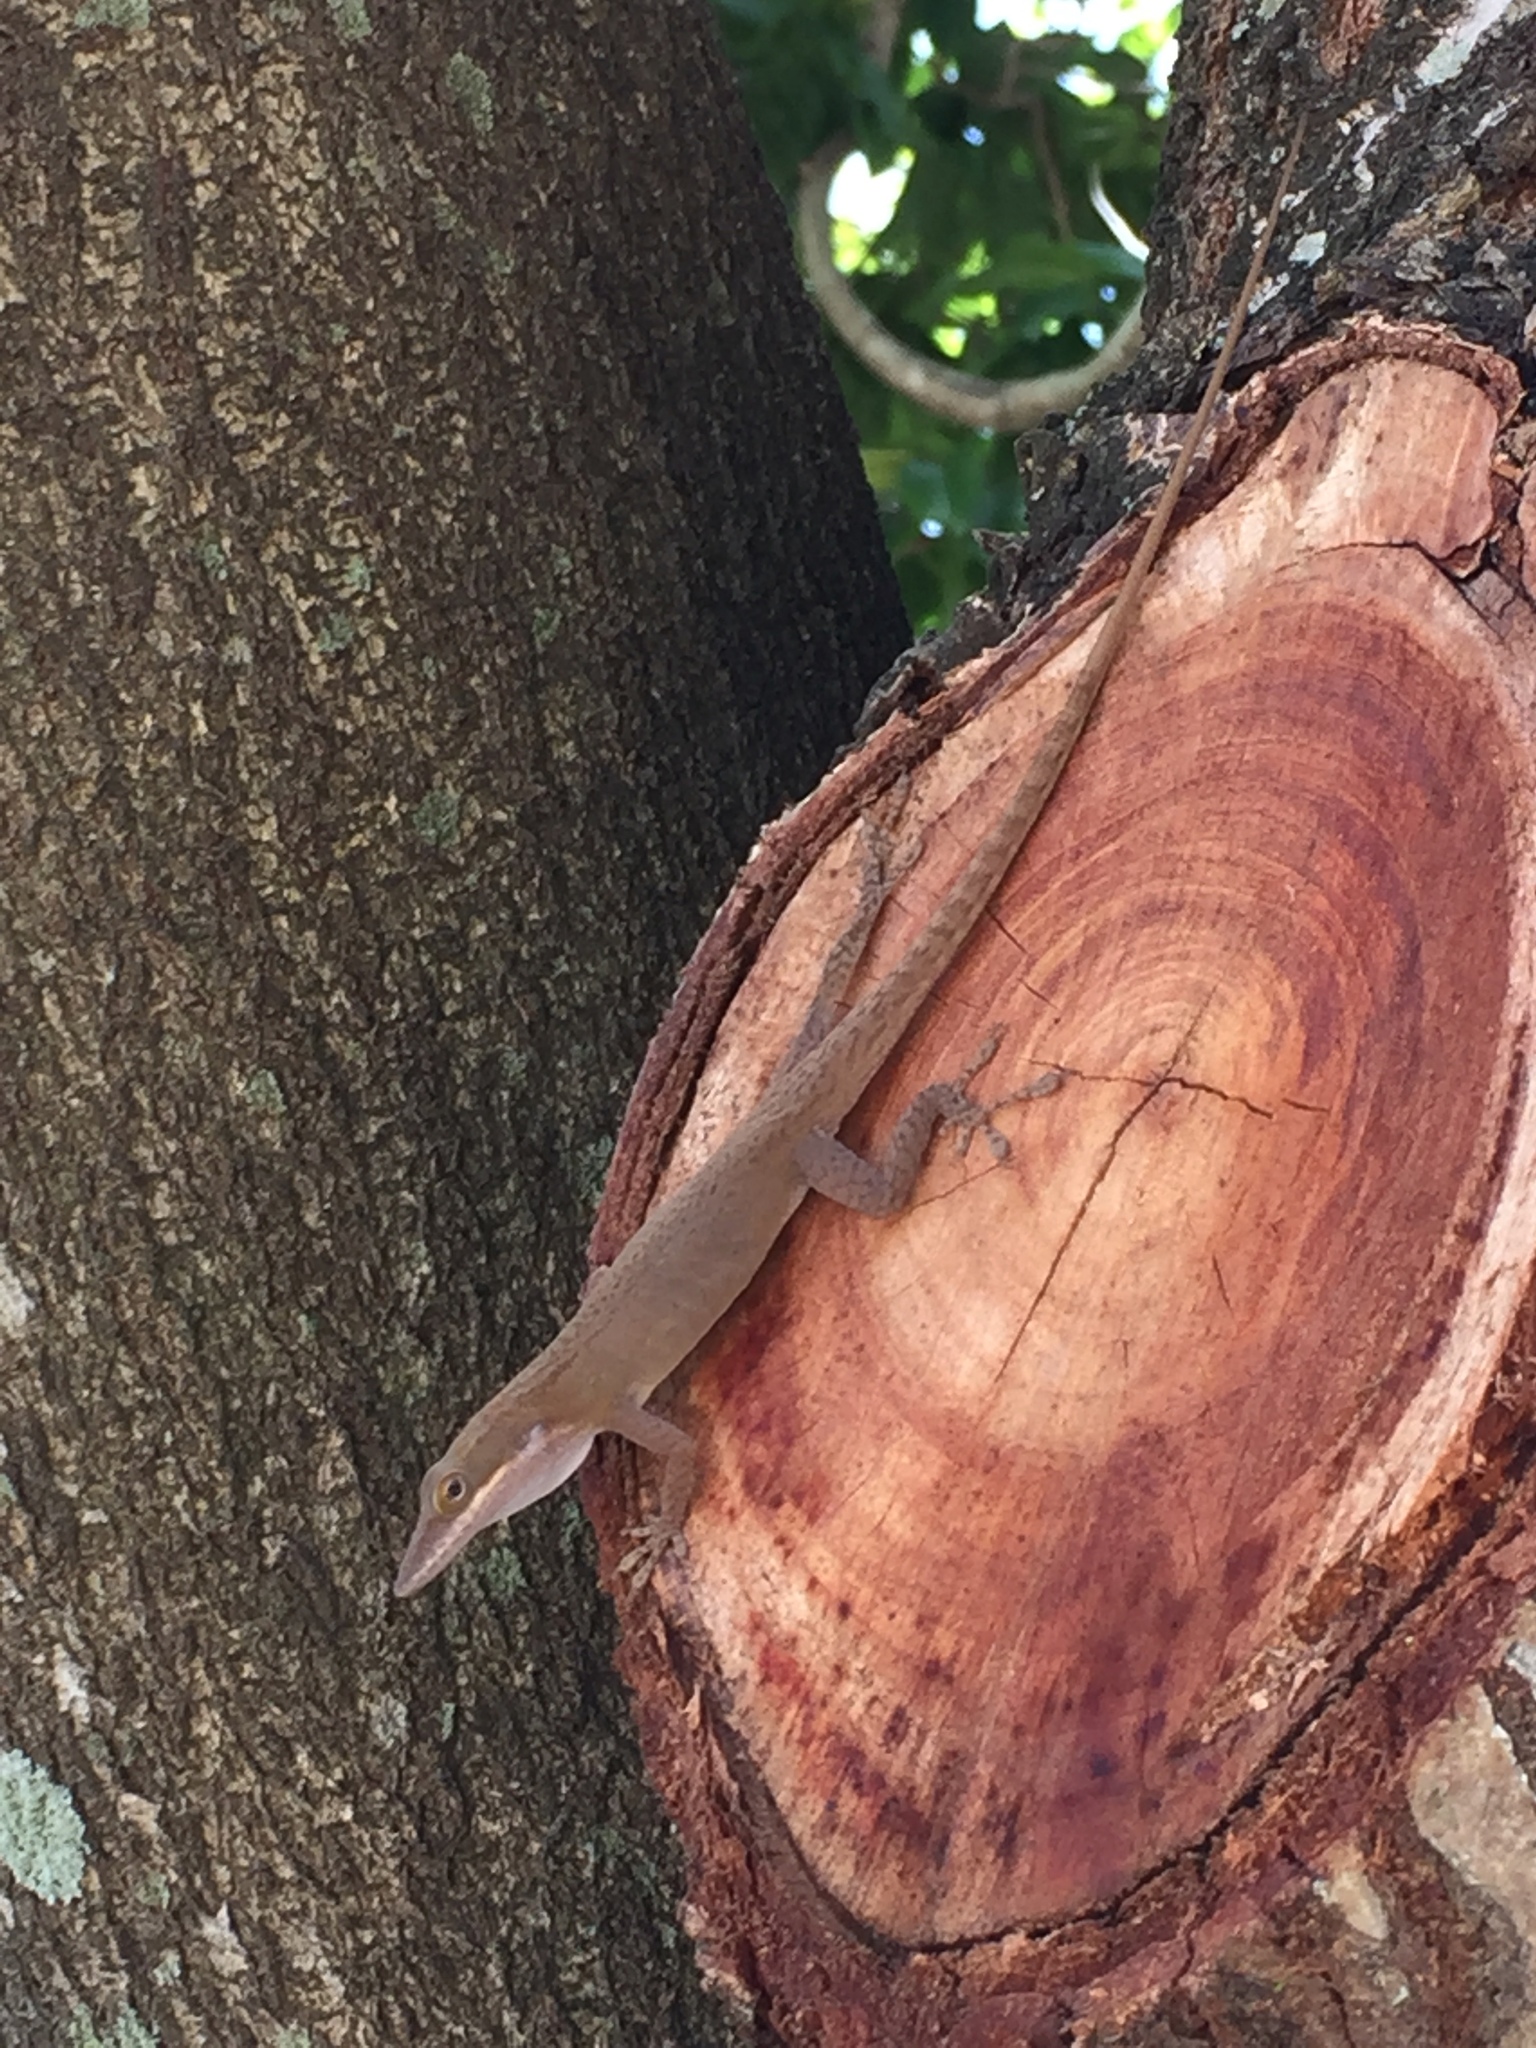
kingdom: Animalia
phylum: Chordata
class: Squamata
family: Dactyloidae
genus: Anolis
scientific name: Anolis porcatus
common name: Cuban green anole
